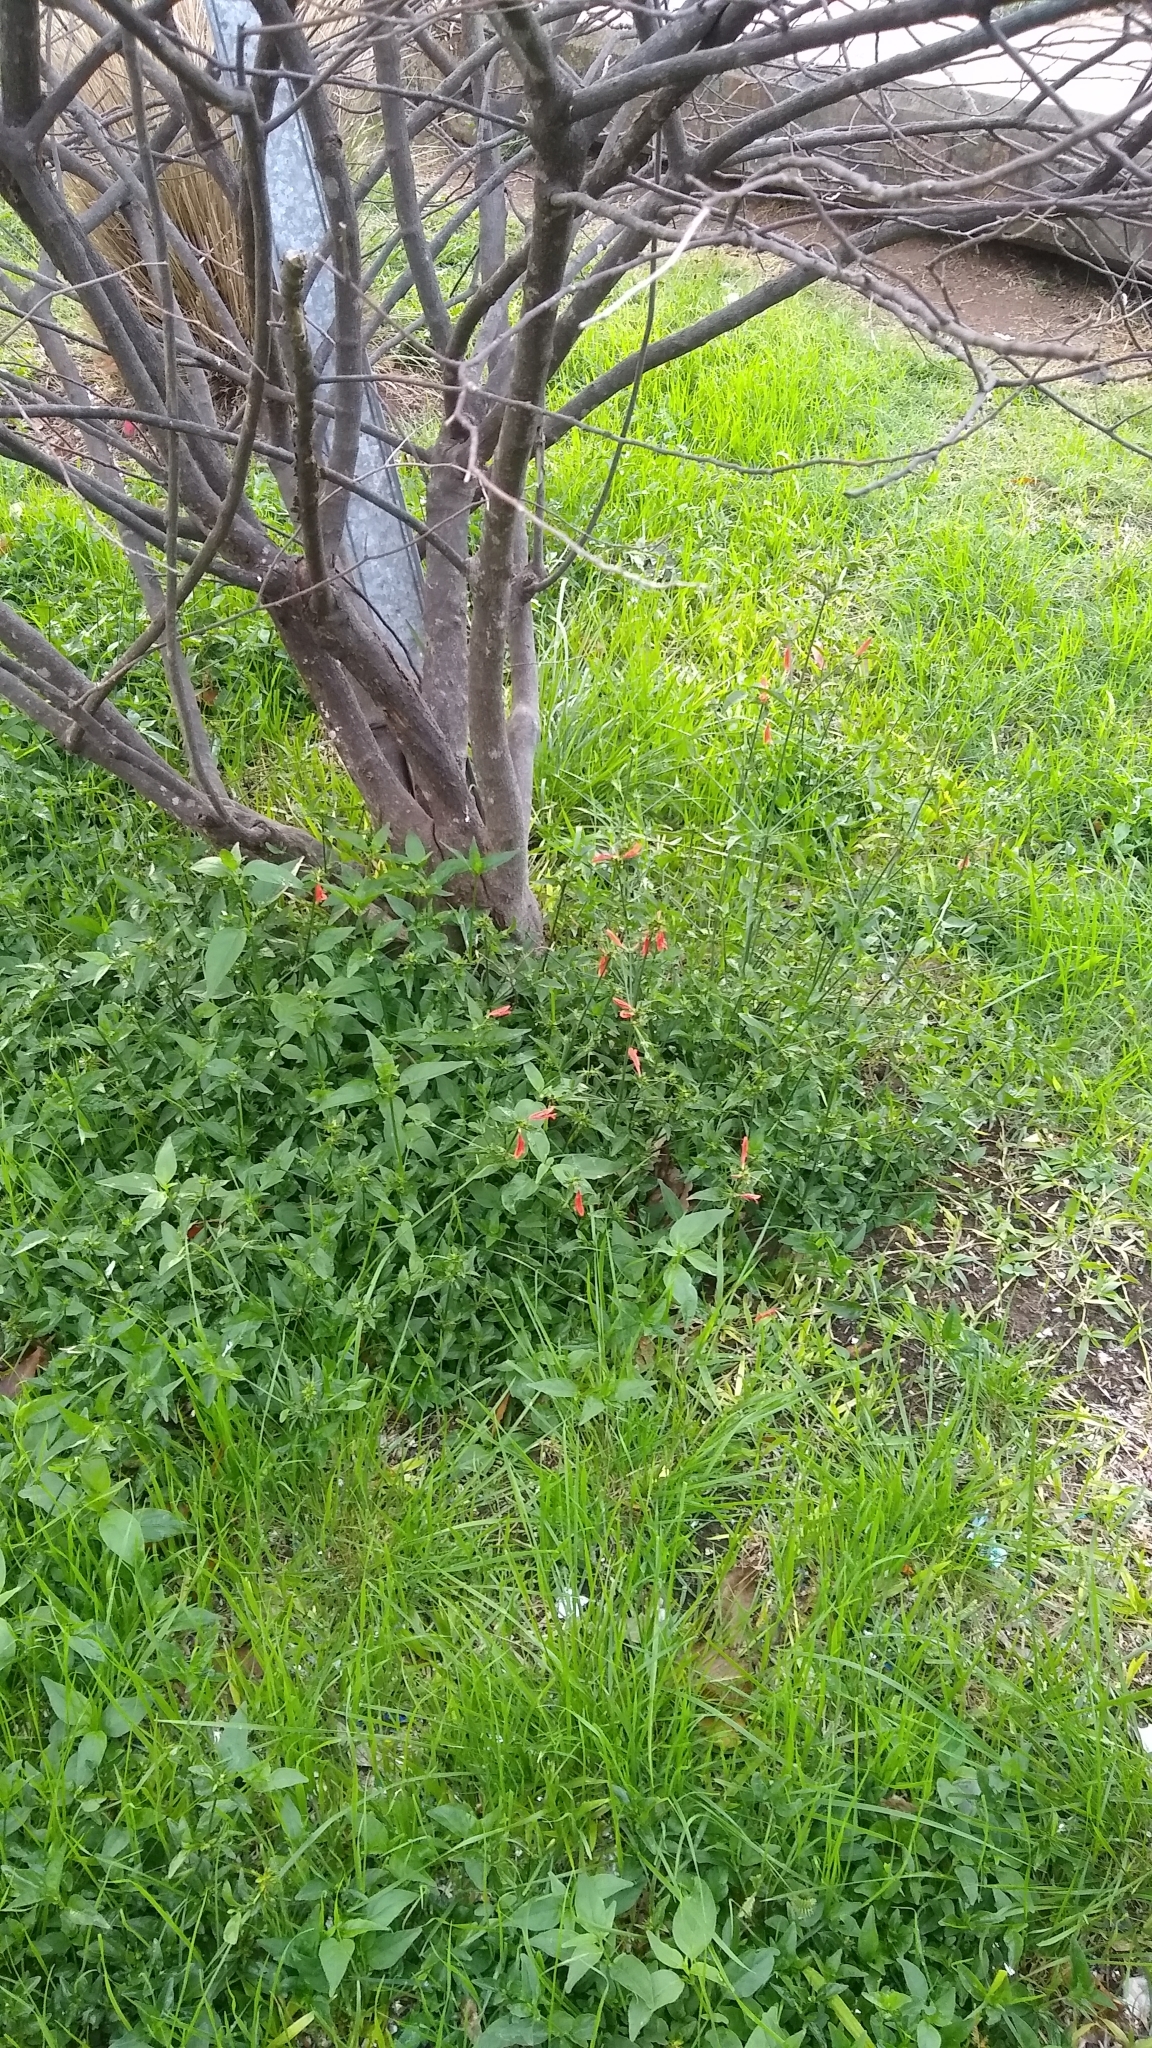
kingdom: Plantae
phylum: Tracheophyta
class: Magnoliopsida
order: Lamiales
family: Acanthaceae
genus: Dicliptera
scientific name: Dicliptera squarrosa
